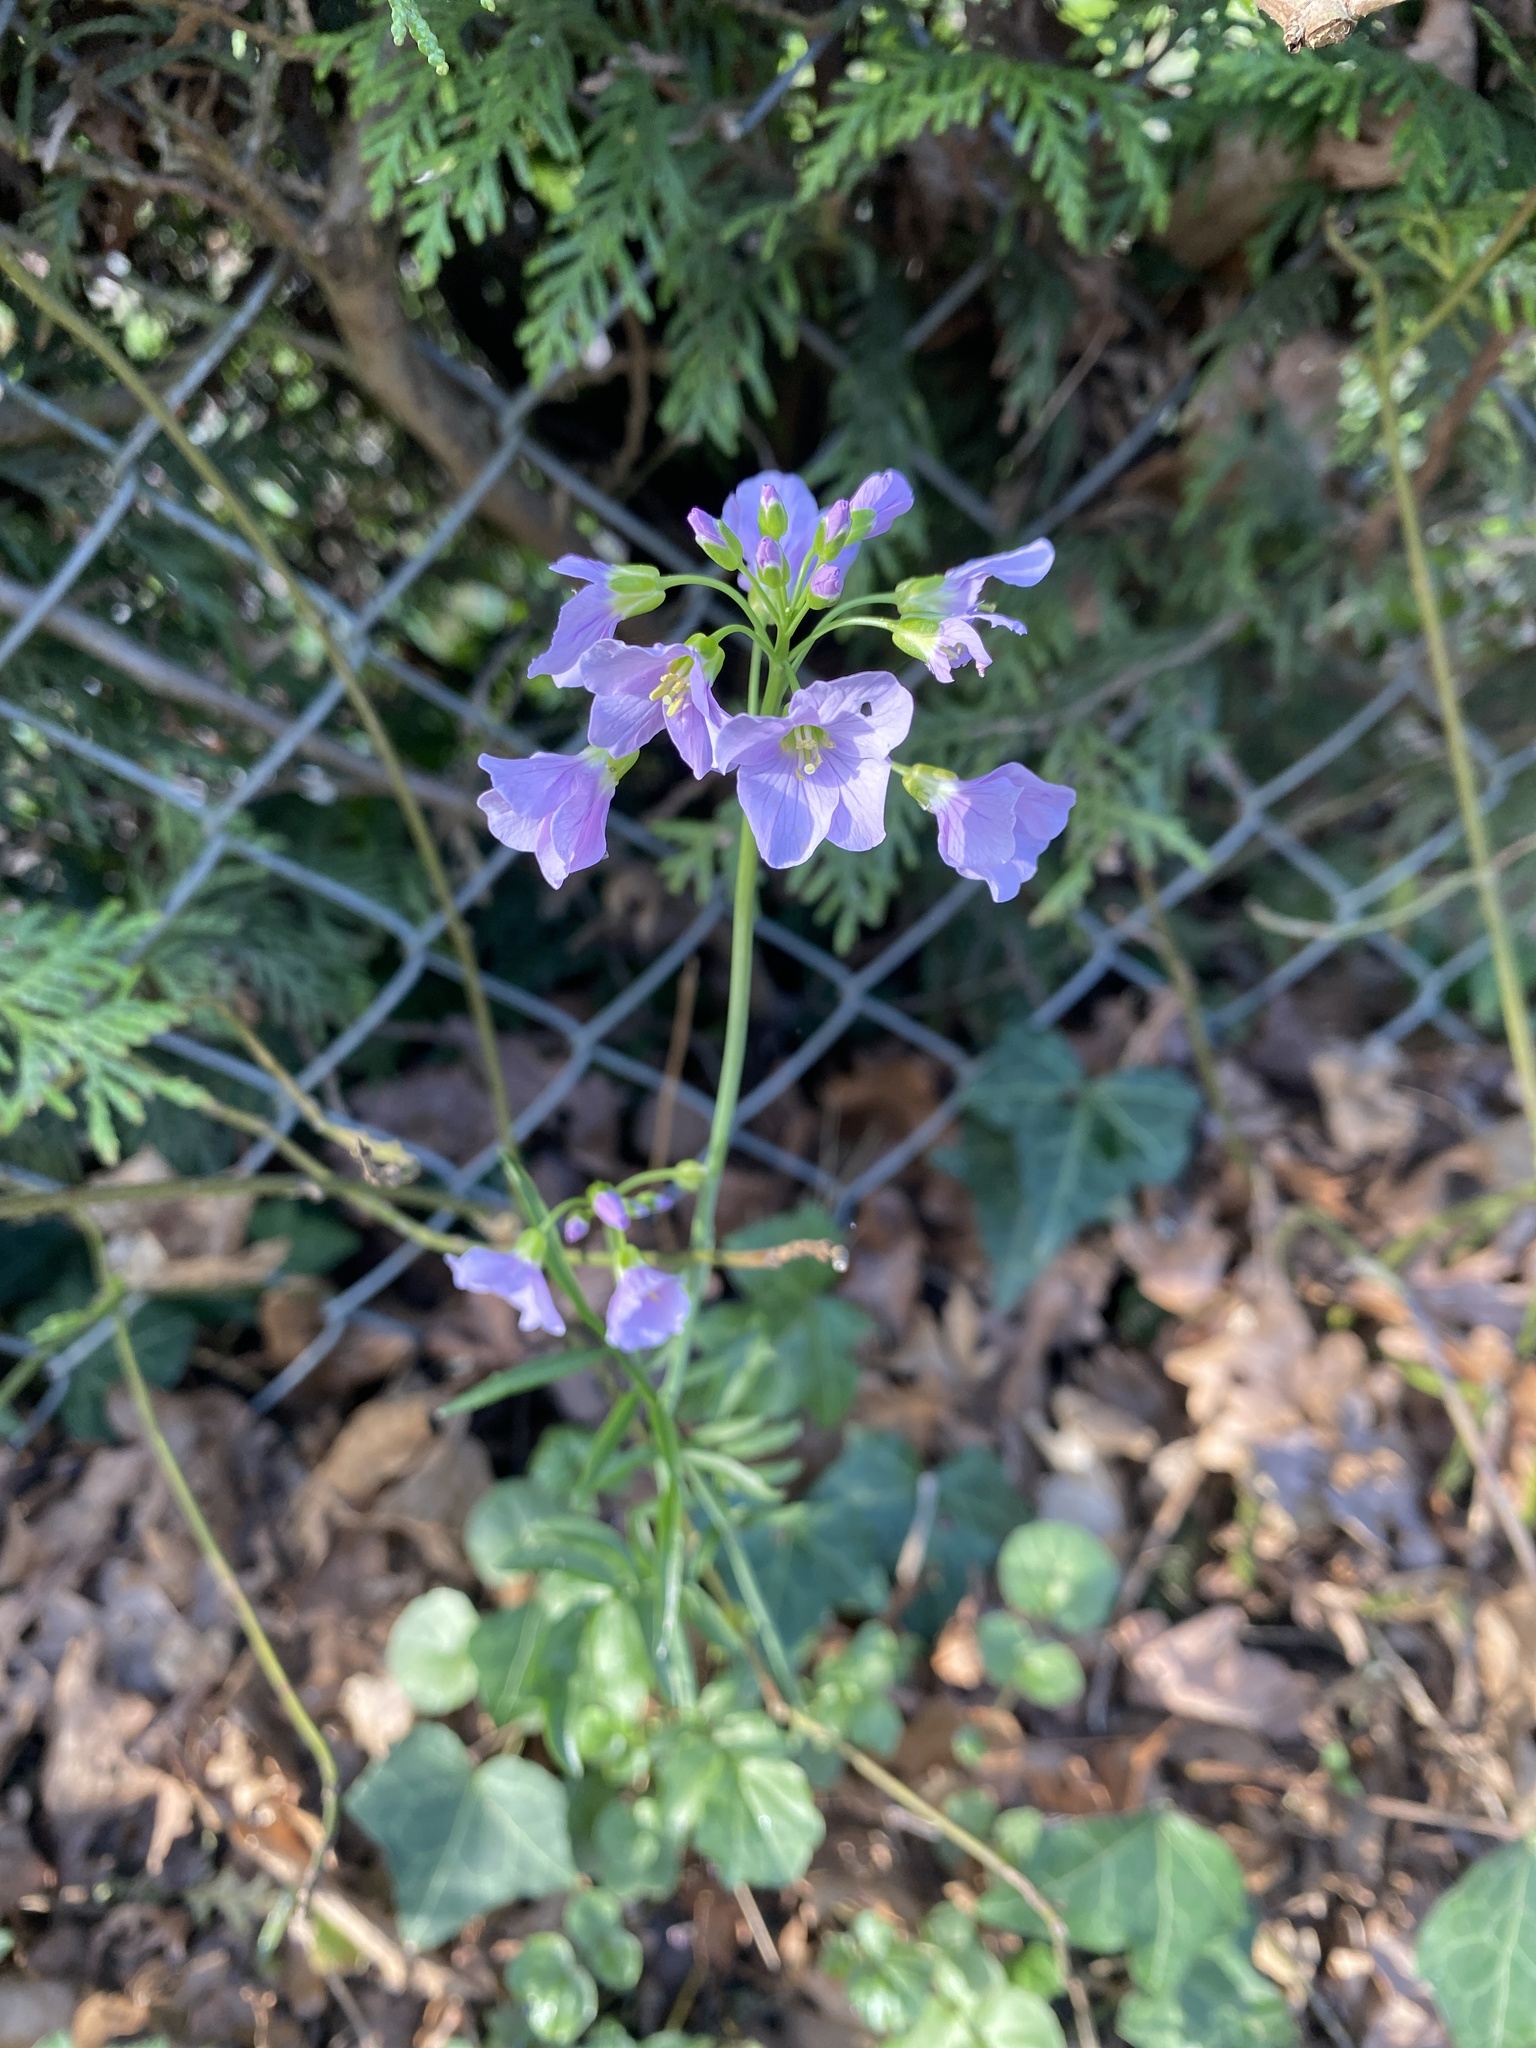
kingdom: Plantae
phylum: Tracheophyta
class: Magnoliopsida
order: Brassicales
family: Brassicaceae
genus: Cardamine
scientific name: Cardamine pratensis
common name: Cuckoo flower
